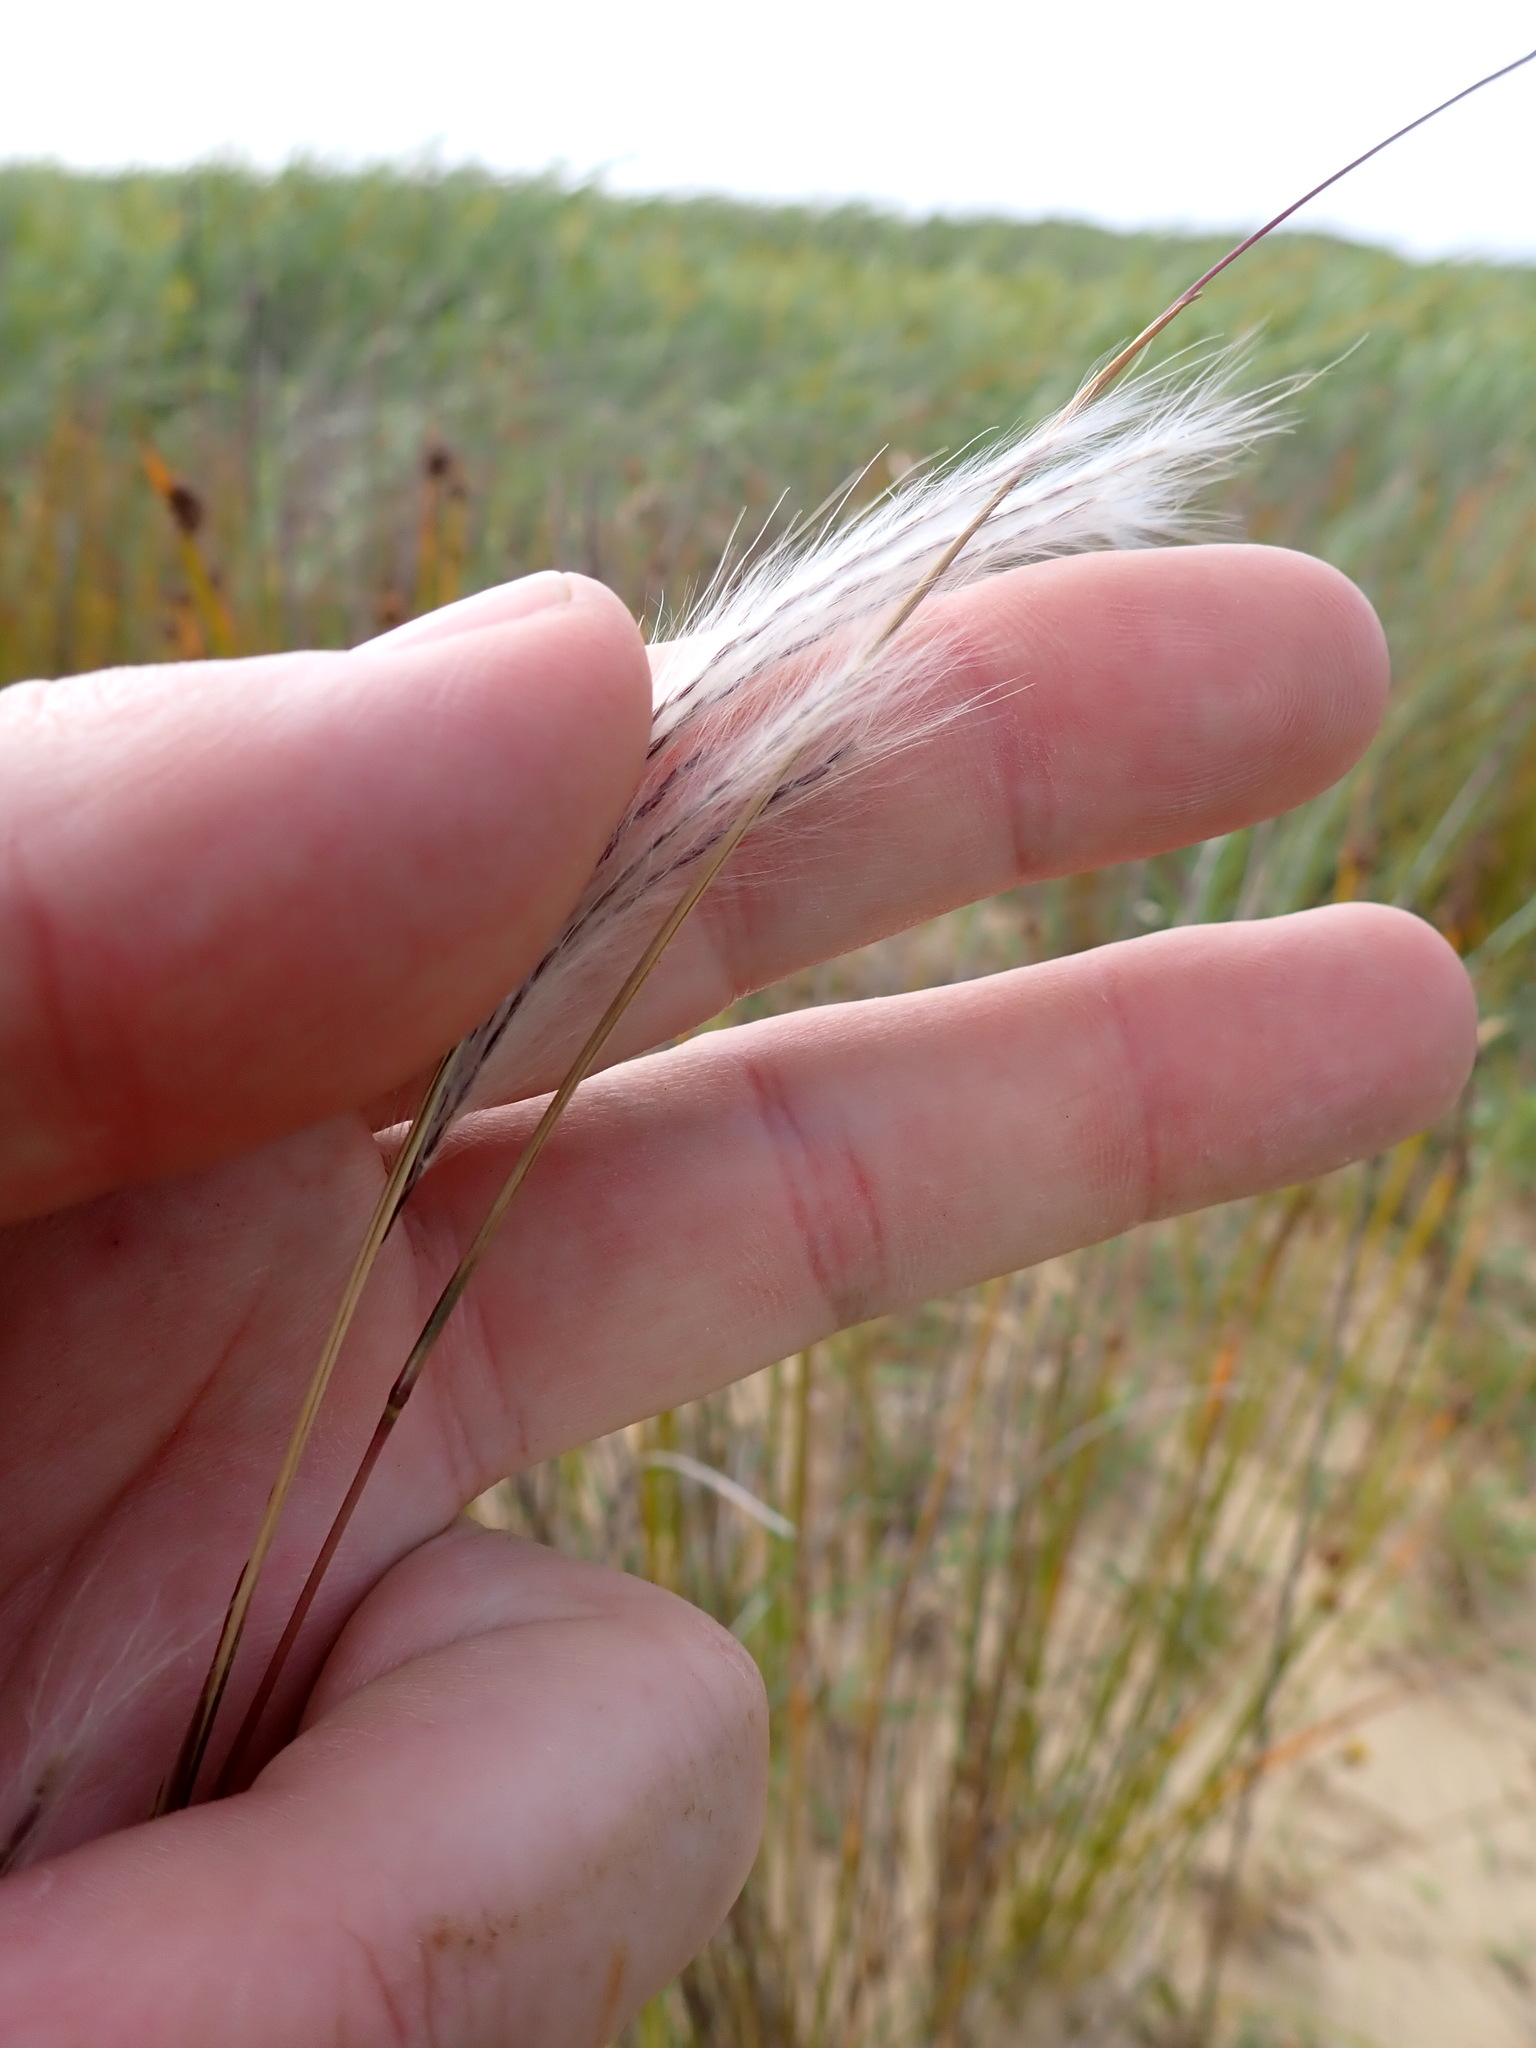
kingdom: Plantae
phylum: Tracheophyta
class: Liliopsida
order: Poales
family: Poaceae
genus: Andropogon
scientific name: Andropogon virginicus
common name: Broomsedge bluestem
